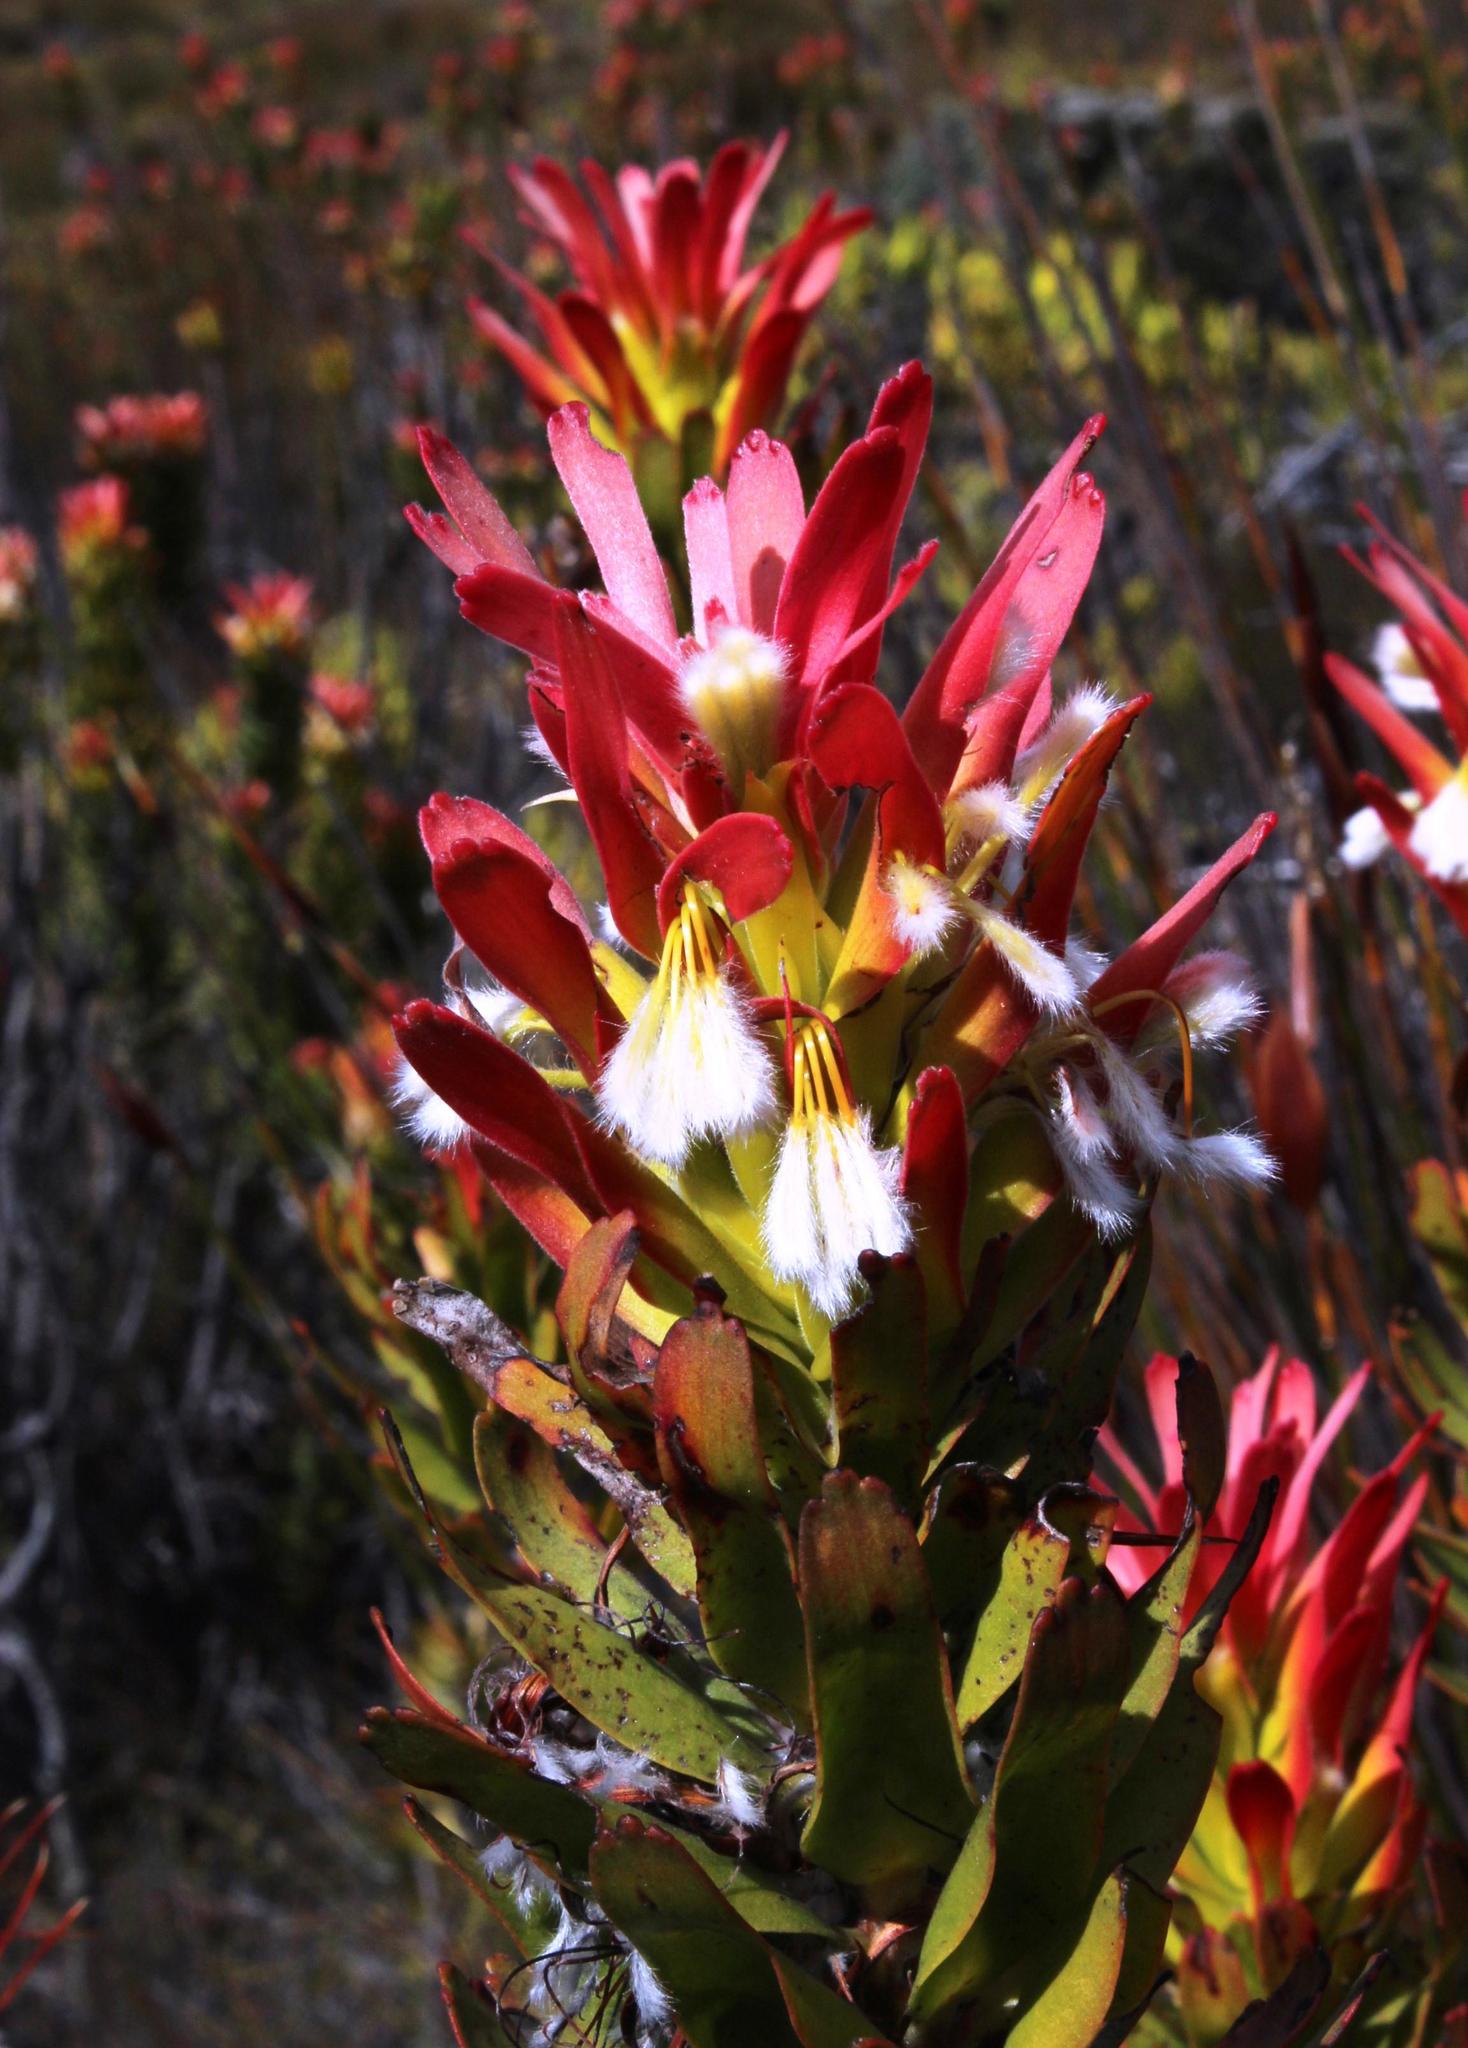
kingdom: Plantae
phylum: Tracheophyta
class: Magnoliopsida
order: Proteales
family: Proteaceae
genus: Mimetes
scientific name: Mimetes cucullatus
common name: Common pagoda
